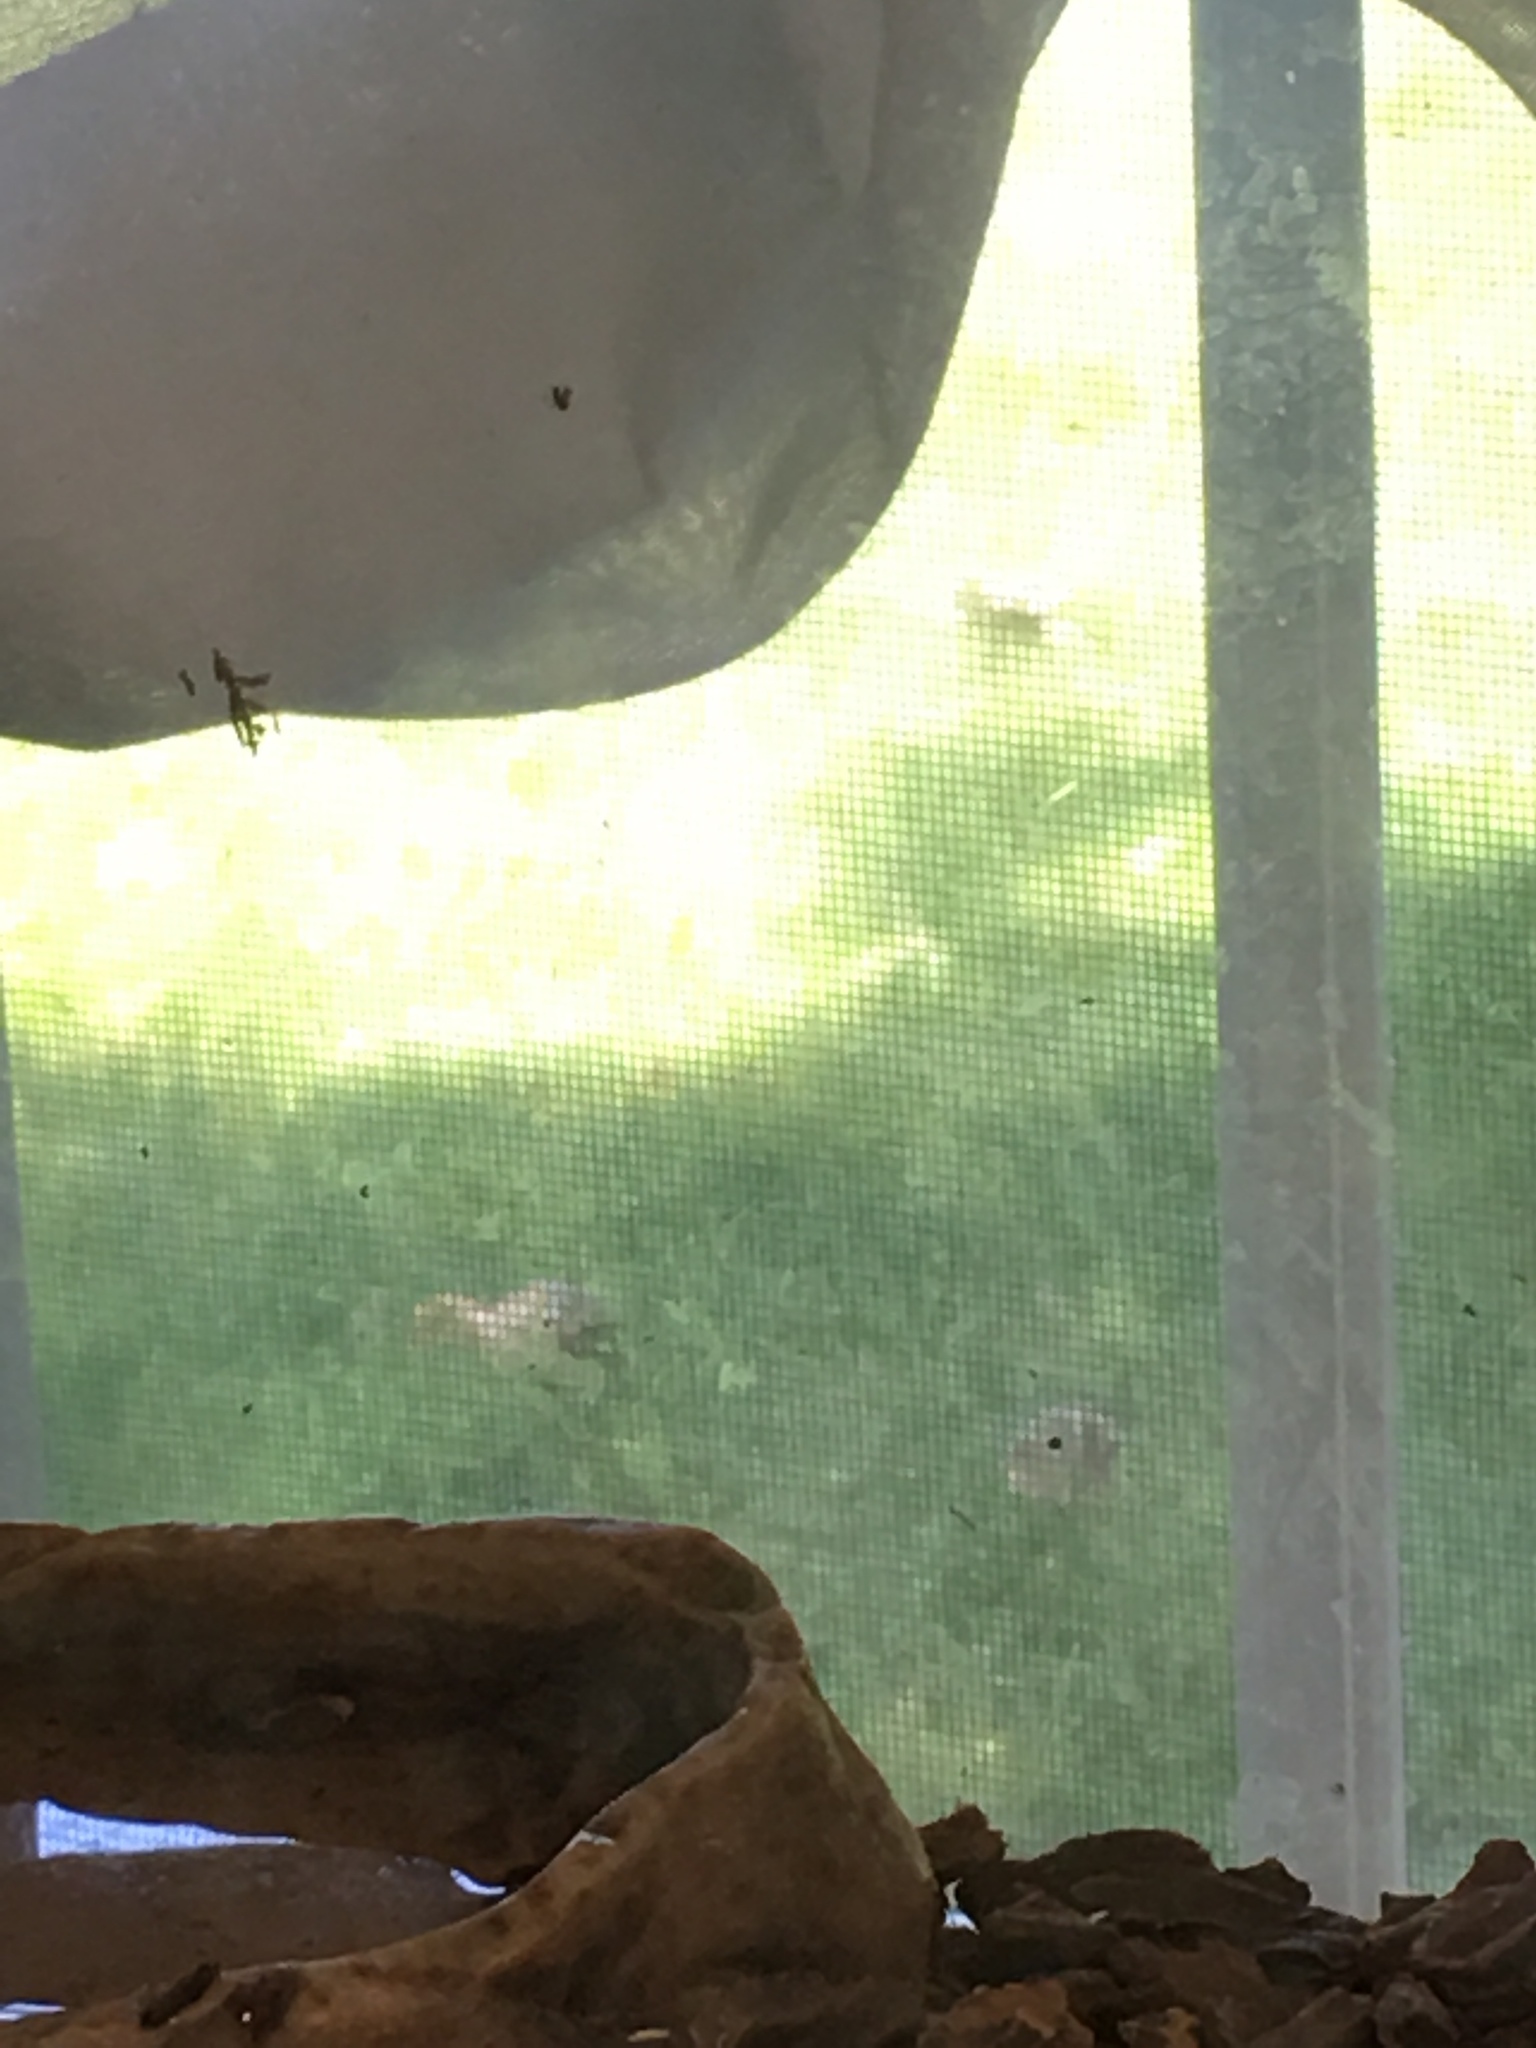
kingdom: Animalia
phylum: Chordata
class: Aves
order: Galliformes
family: Phasianidae
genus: Meleagris
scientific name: Meleagris gallopavo
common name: Wild turkey
